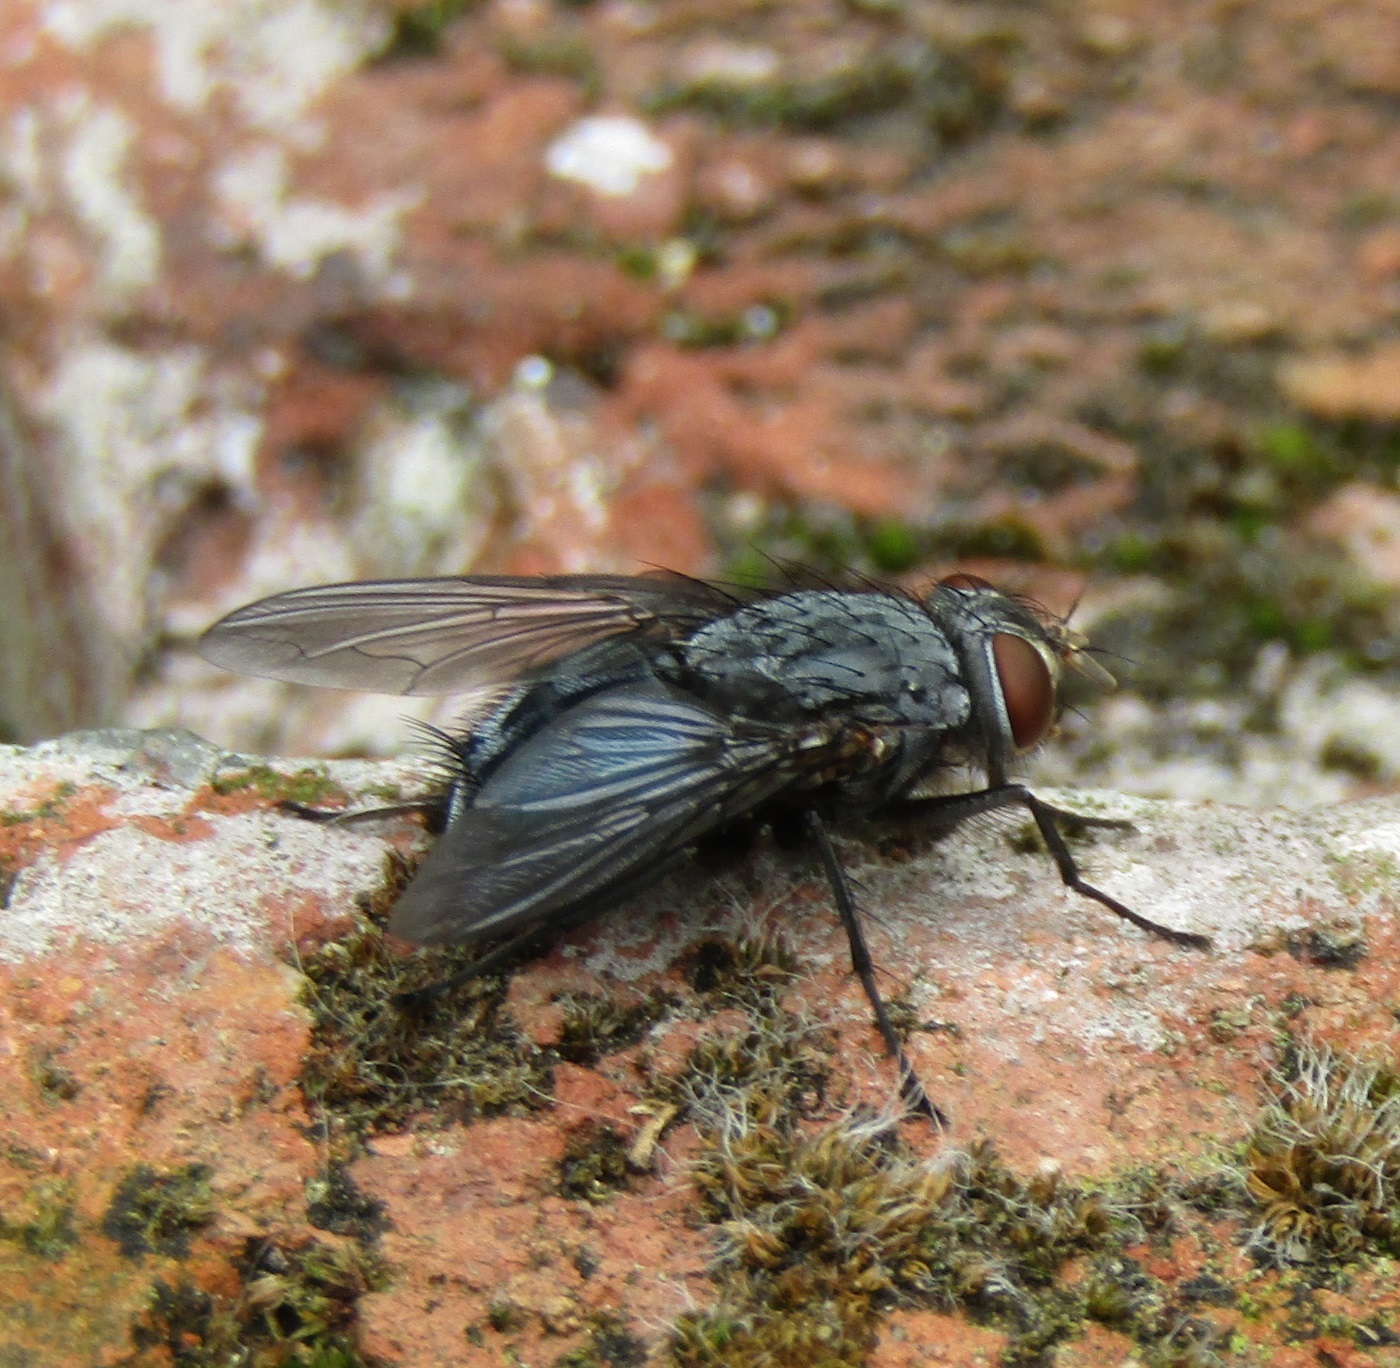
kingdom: Animalia
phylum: Arthropoda
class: Insecta
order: Diptera
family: Calliphoridae
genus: Calliphora
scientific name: Calliphora vicina
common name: Common blow flie
